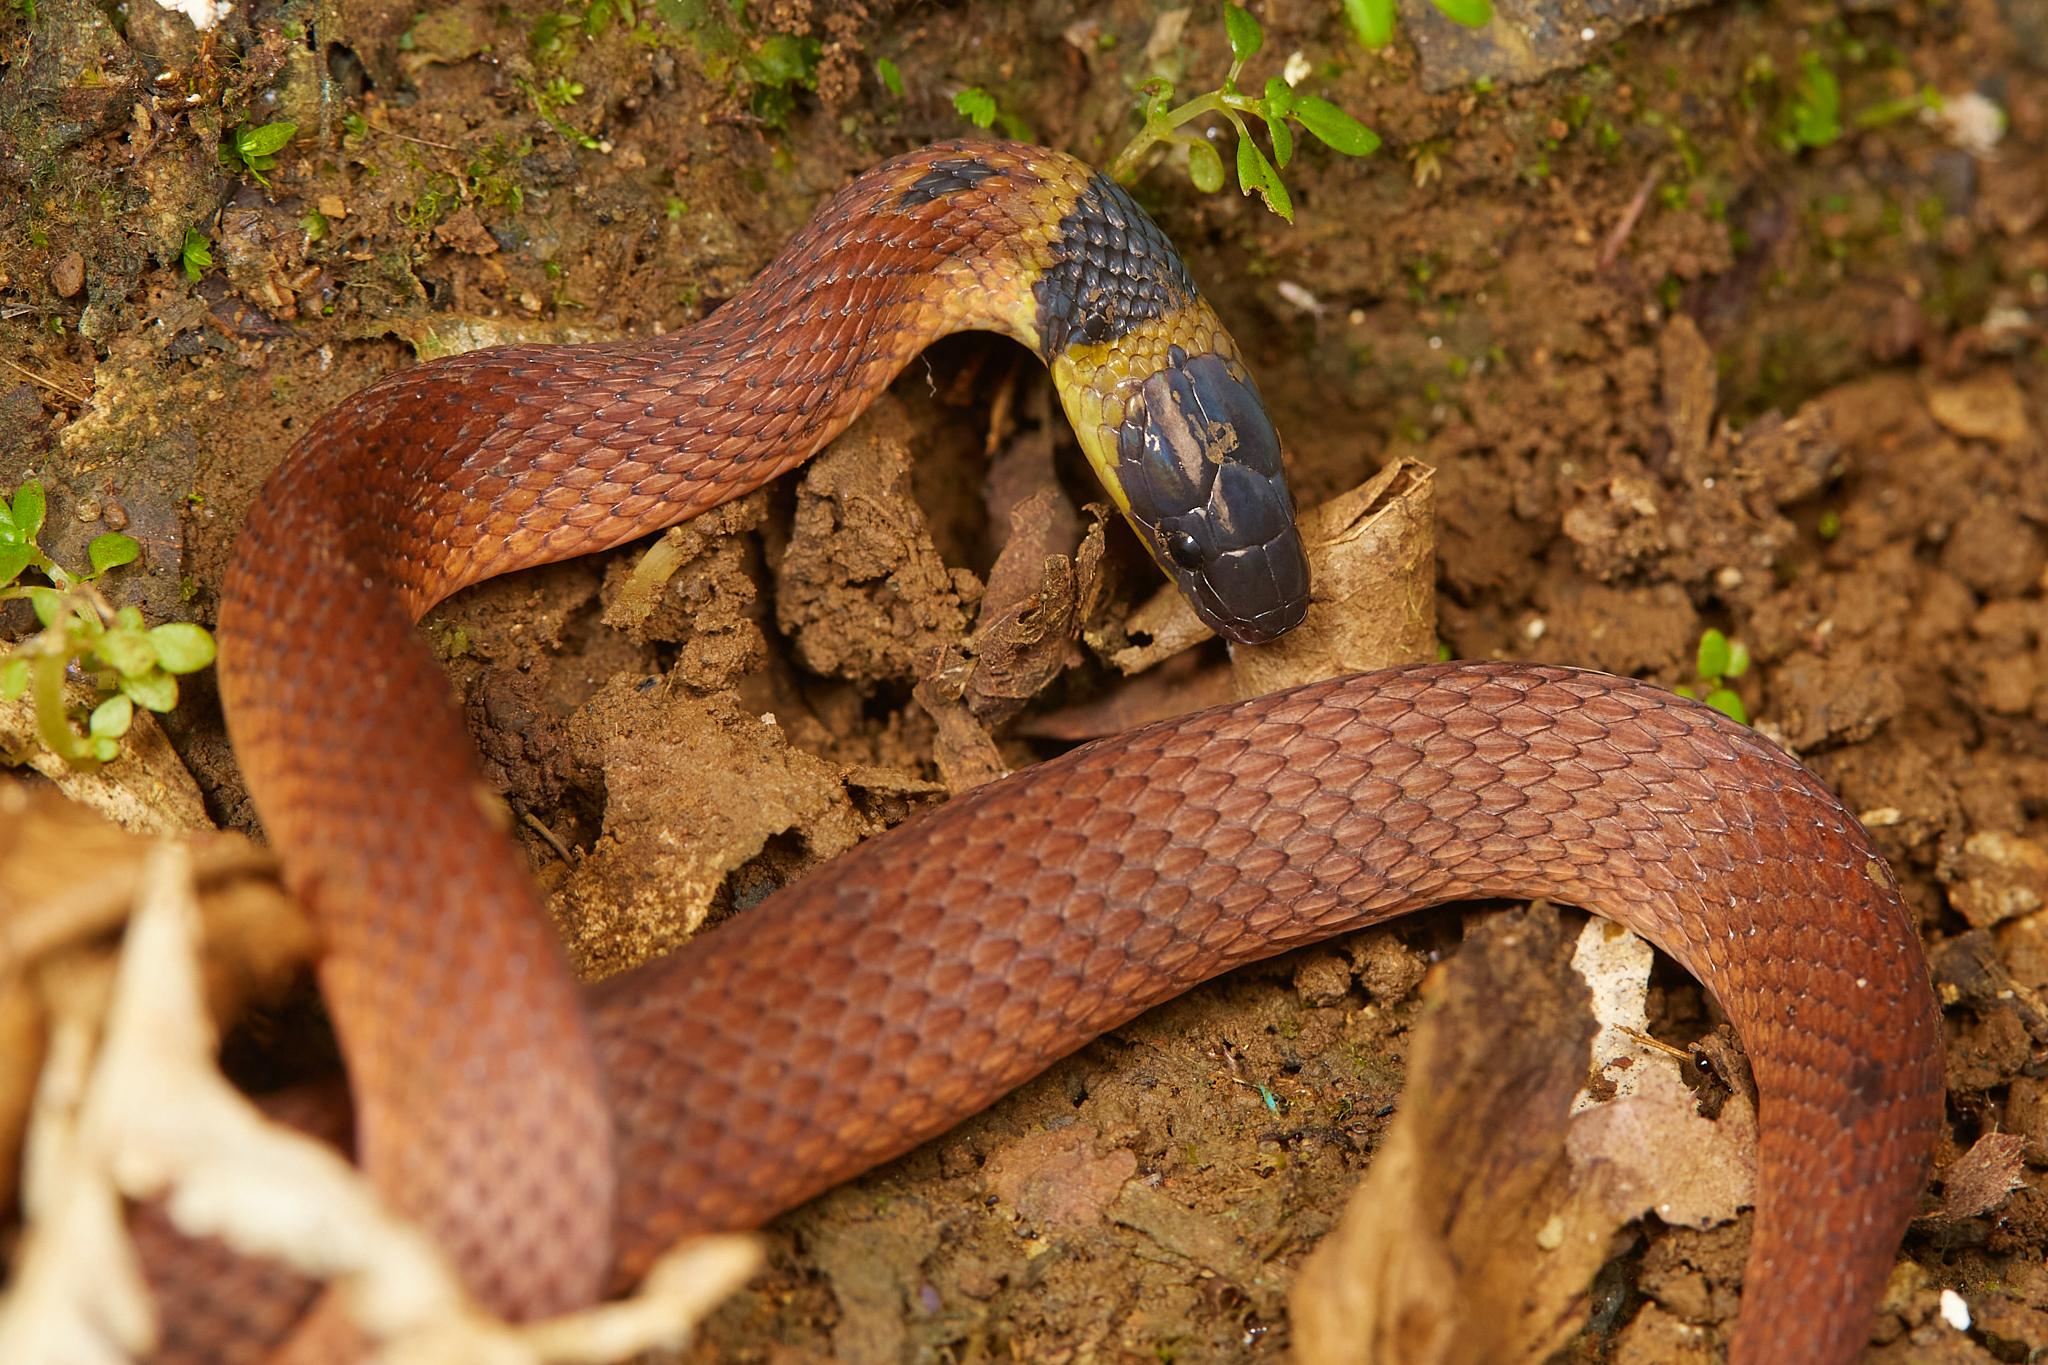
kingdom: Animalia
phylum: Chordata
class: Squamata
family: Colubridae
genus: Ninia
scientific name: Ninia sebae
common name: Redback coffee snake
